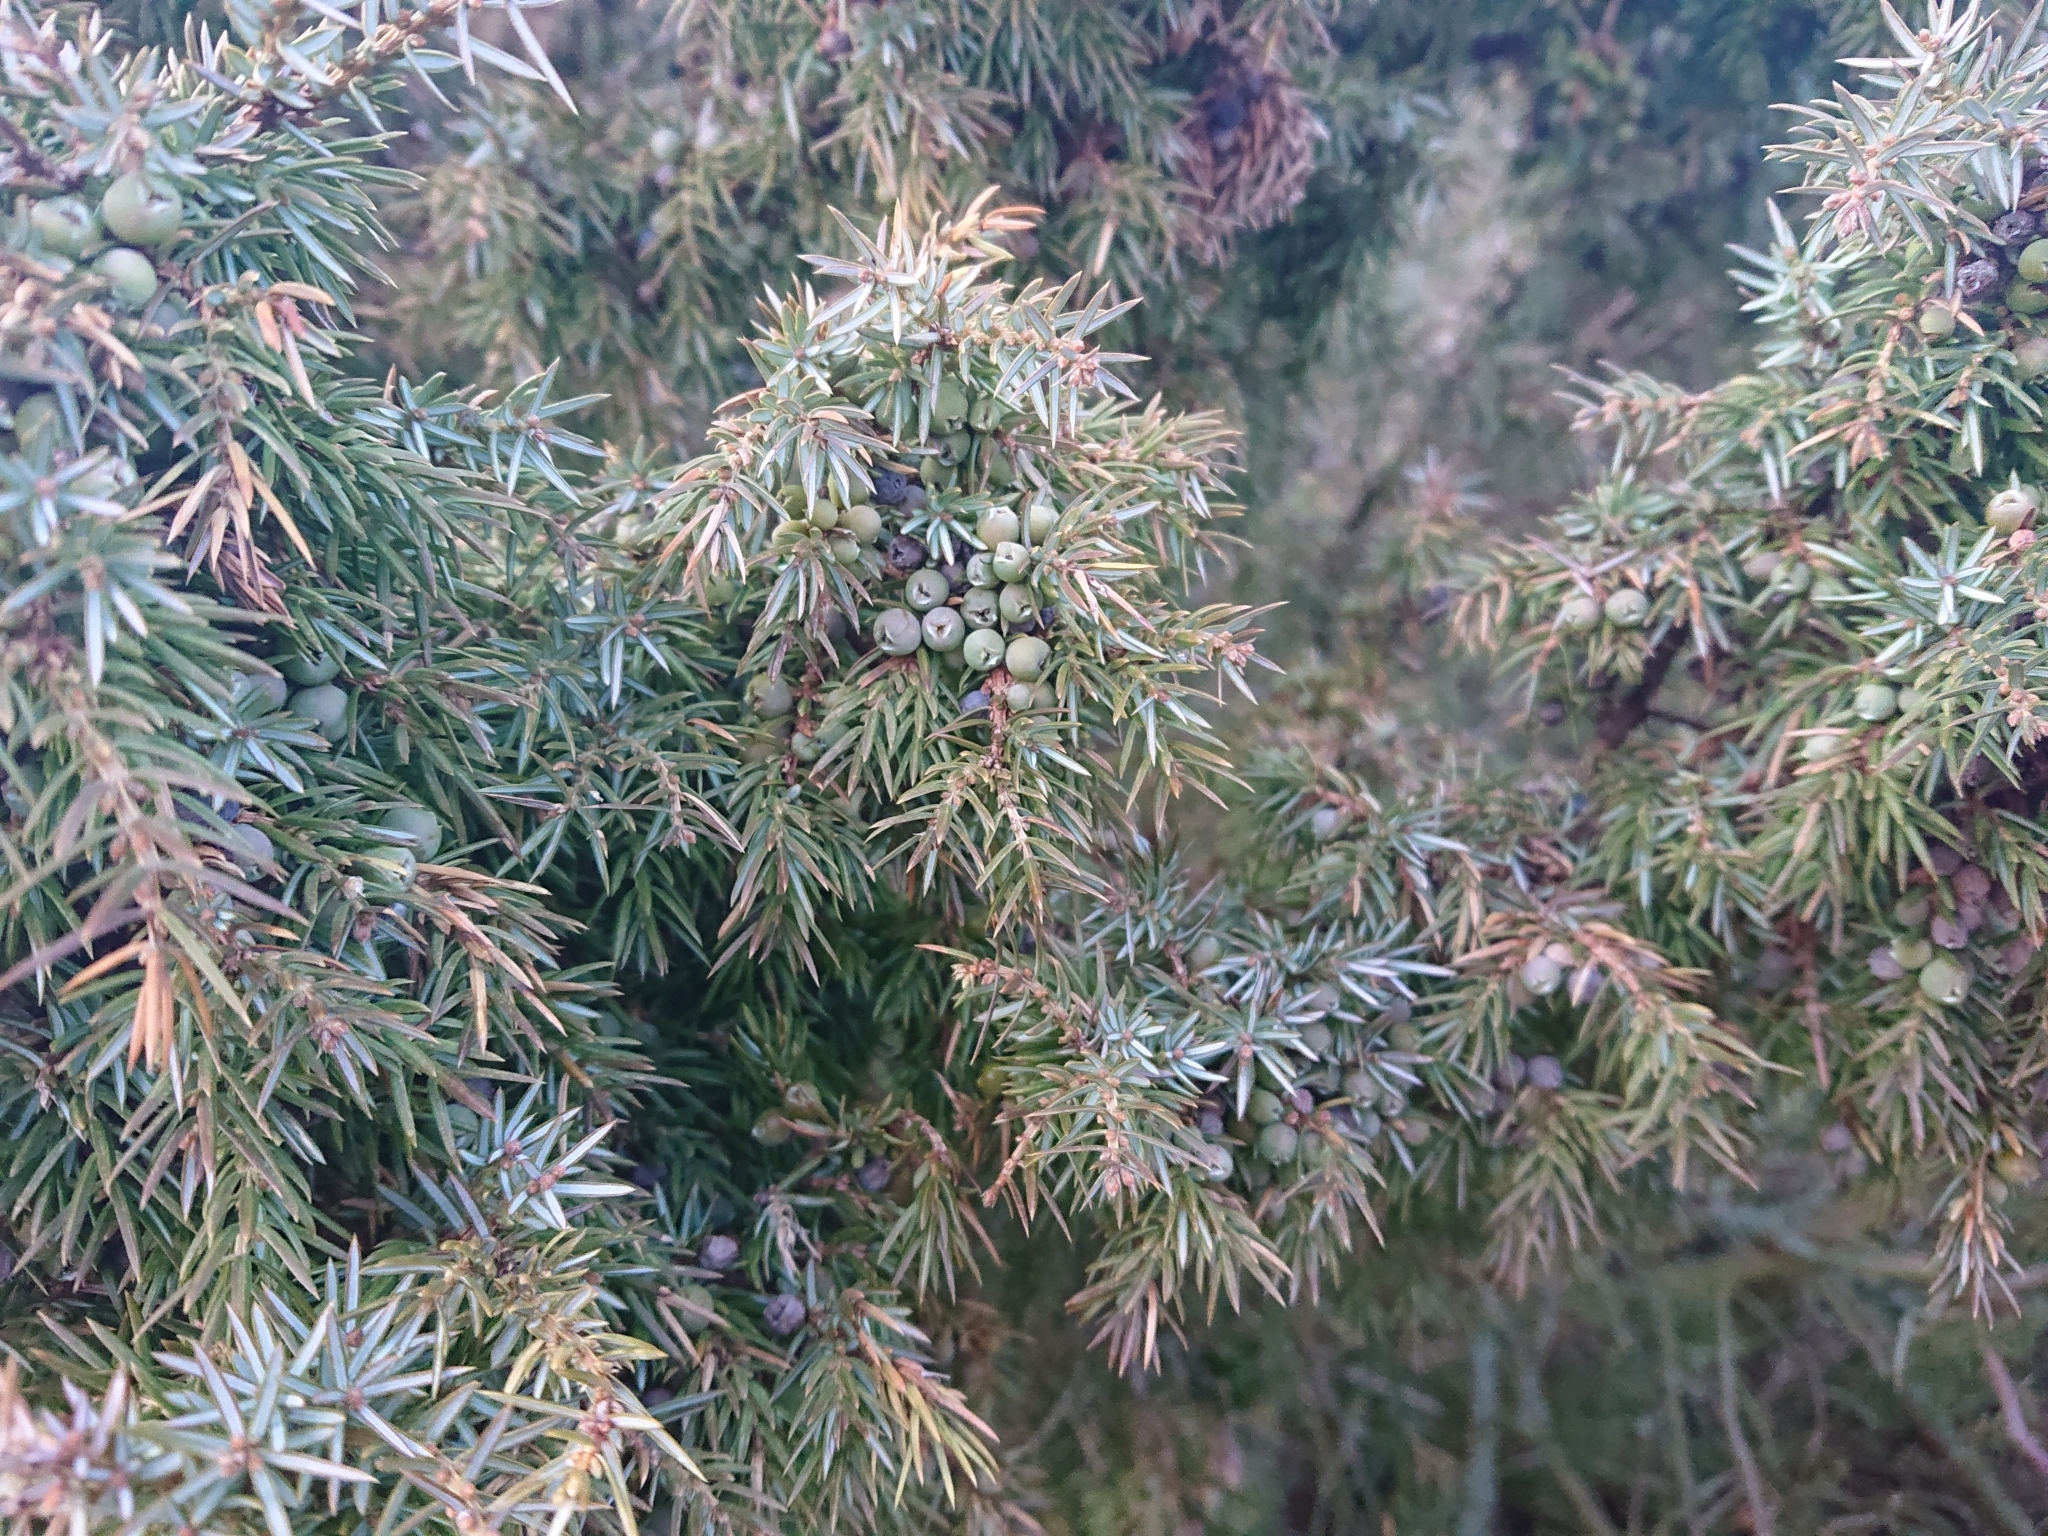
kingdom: Plantae
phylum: Tracheophyta
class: Pinopsida
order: Pinales
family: Cupressaceae
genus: Juniperus
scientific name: Juniperus communis
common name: Common juniper
